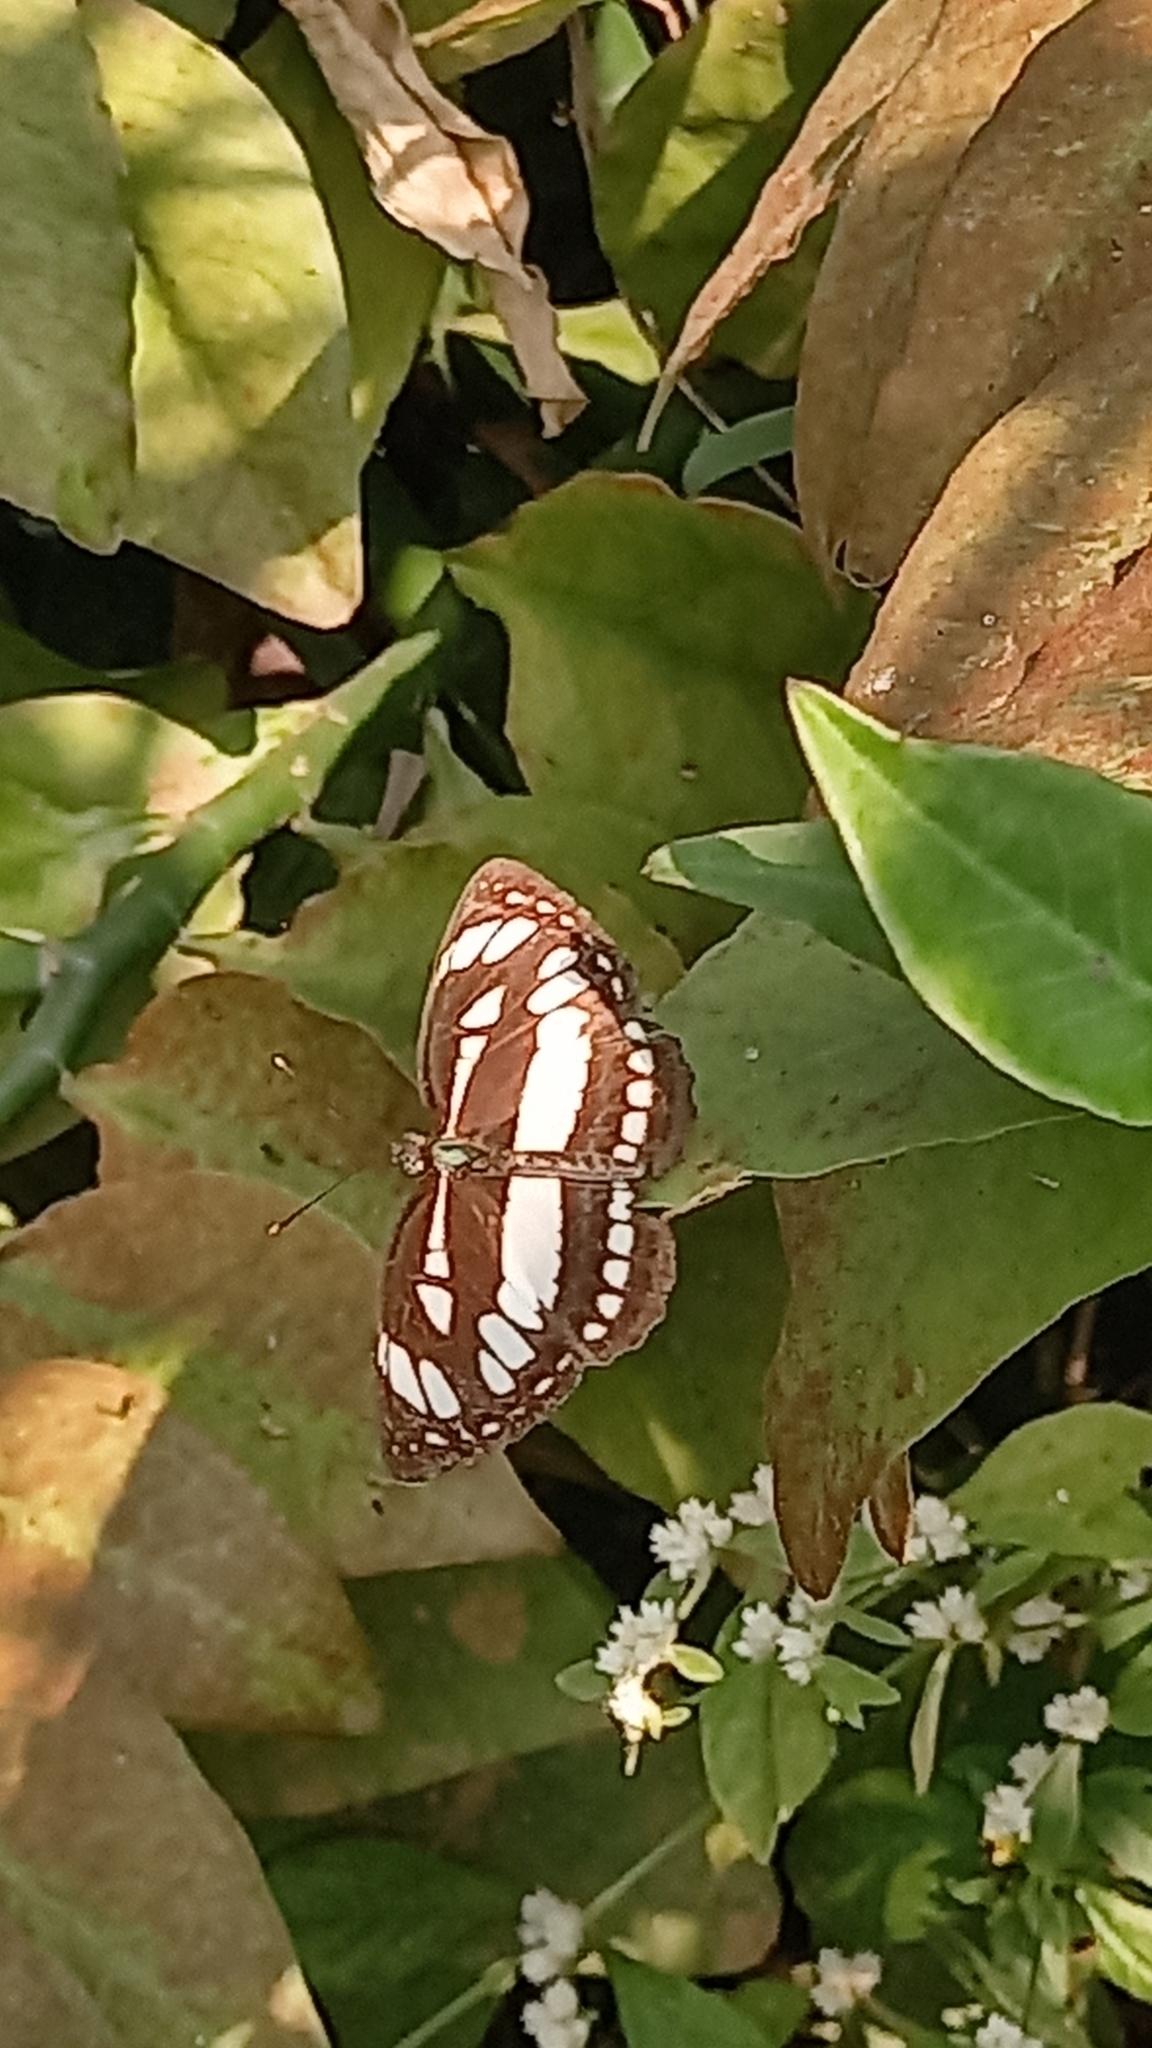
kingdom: Animalia
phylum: Arthropoda
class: Insecta
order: Lepidoptera
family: Nymphalidae
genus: Neptis
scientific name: Neptis hylas
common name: Common sailer
